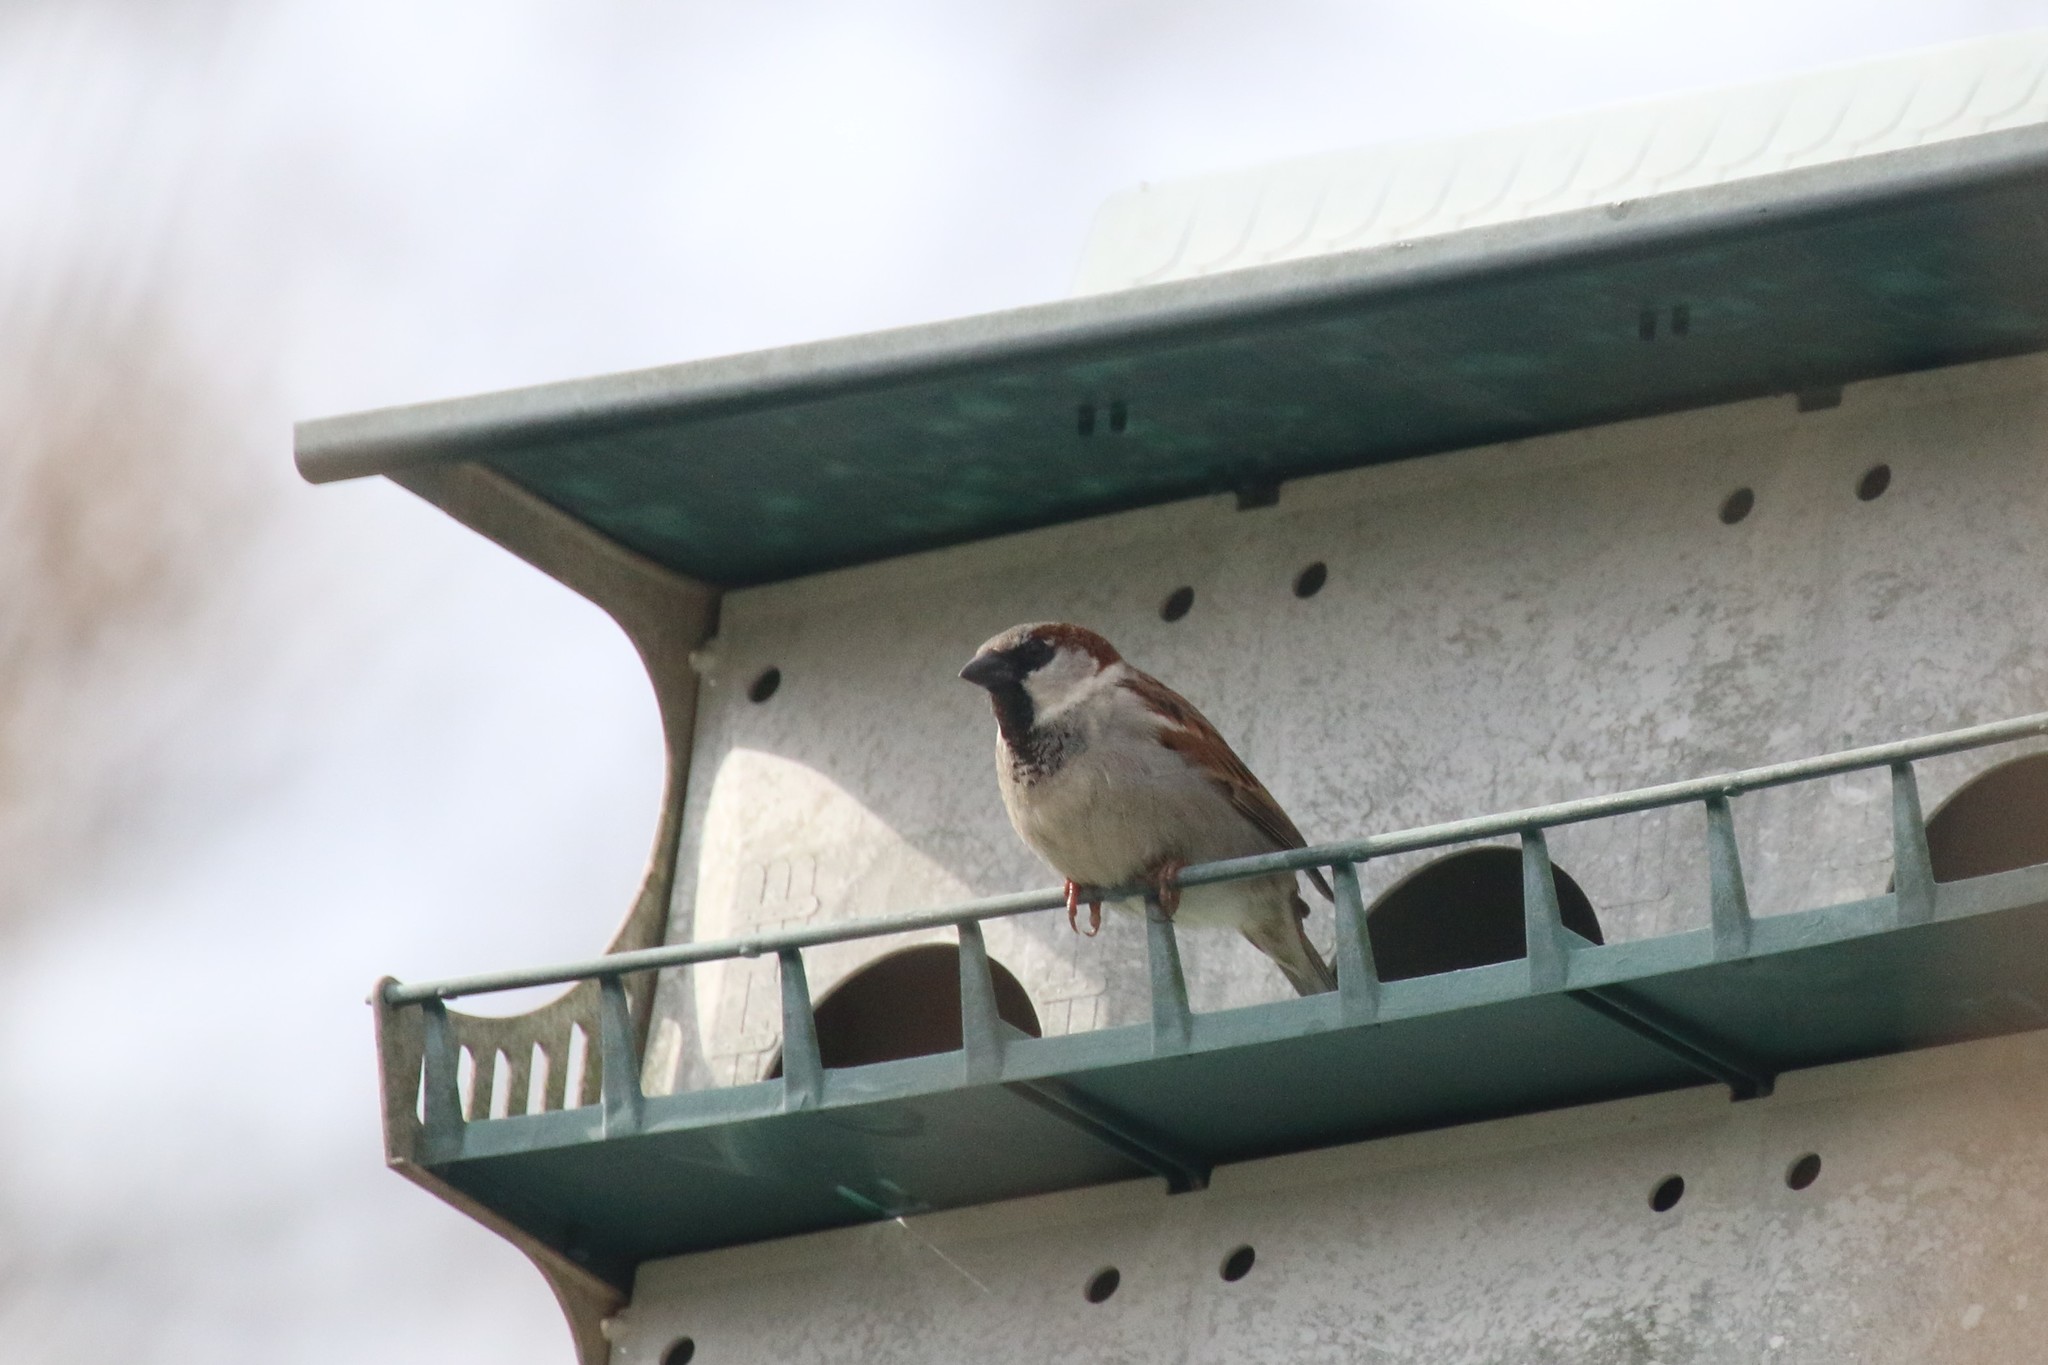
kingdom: Animalia
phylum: Chordata
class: Aves
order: Passeriformes
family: Passeridae
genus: Passer
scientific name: Passer domesticus
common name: House sparrow
